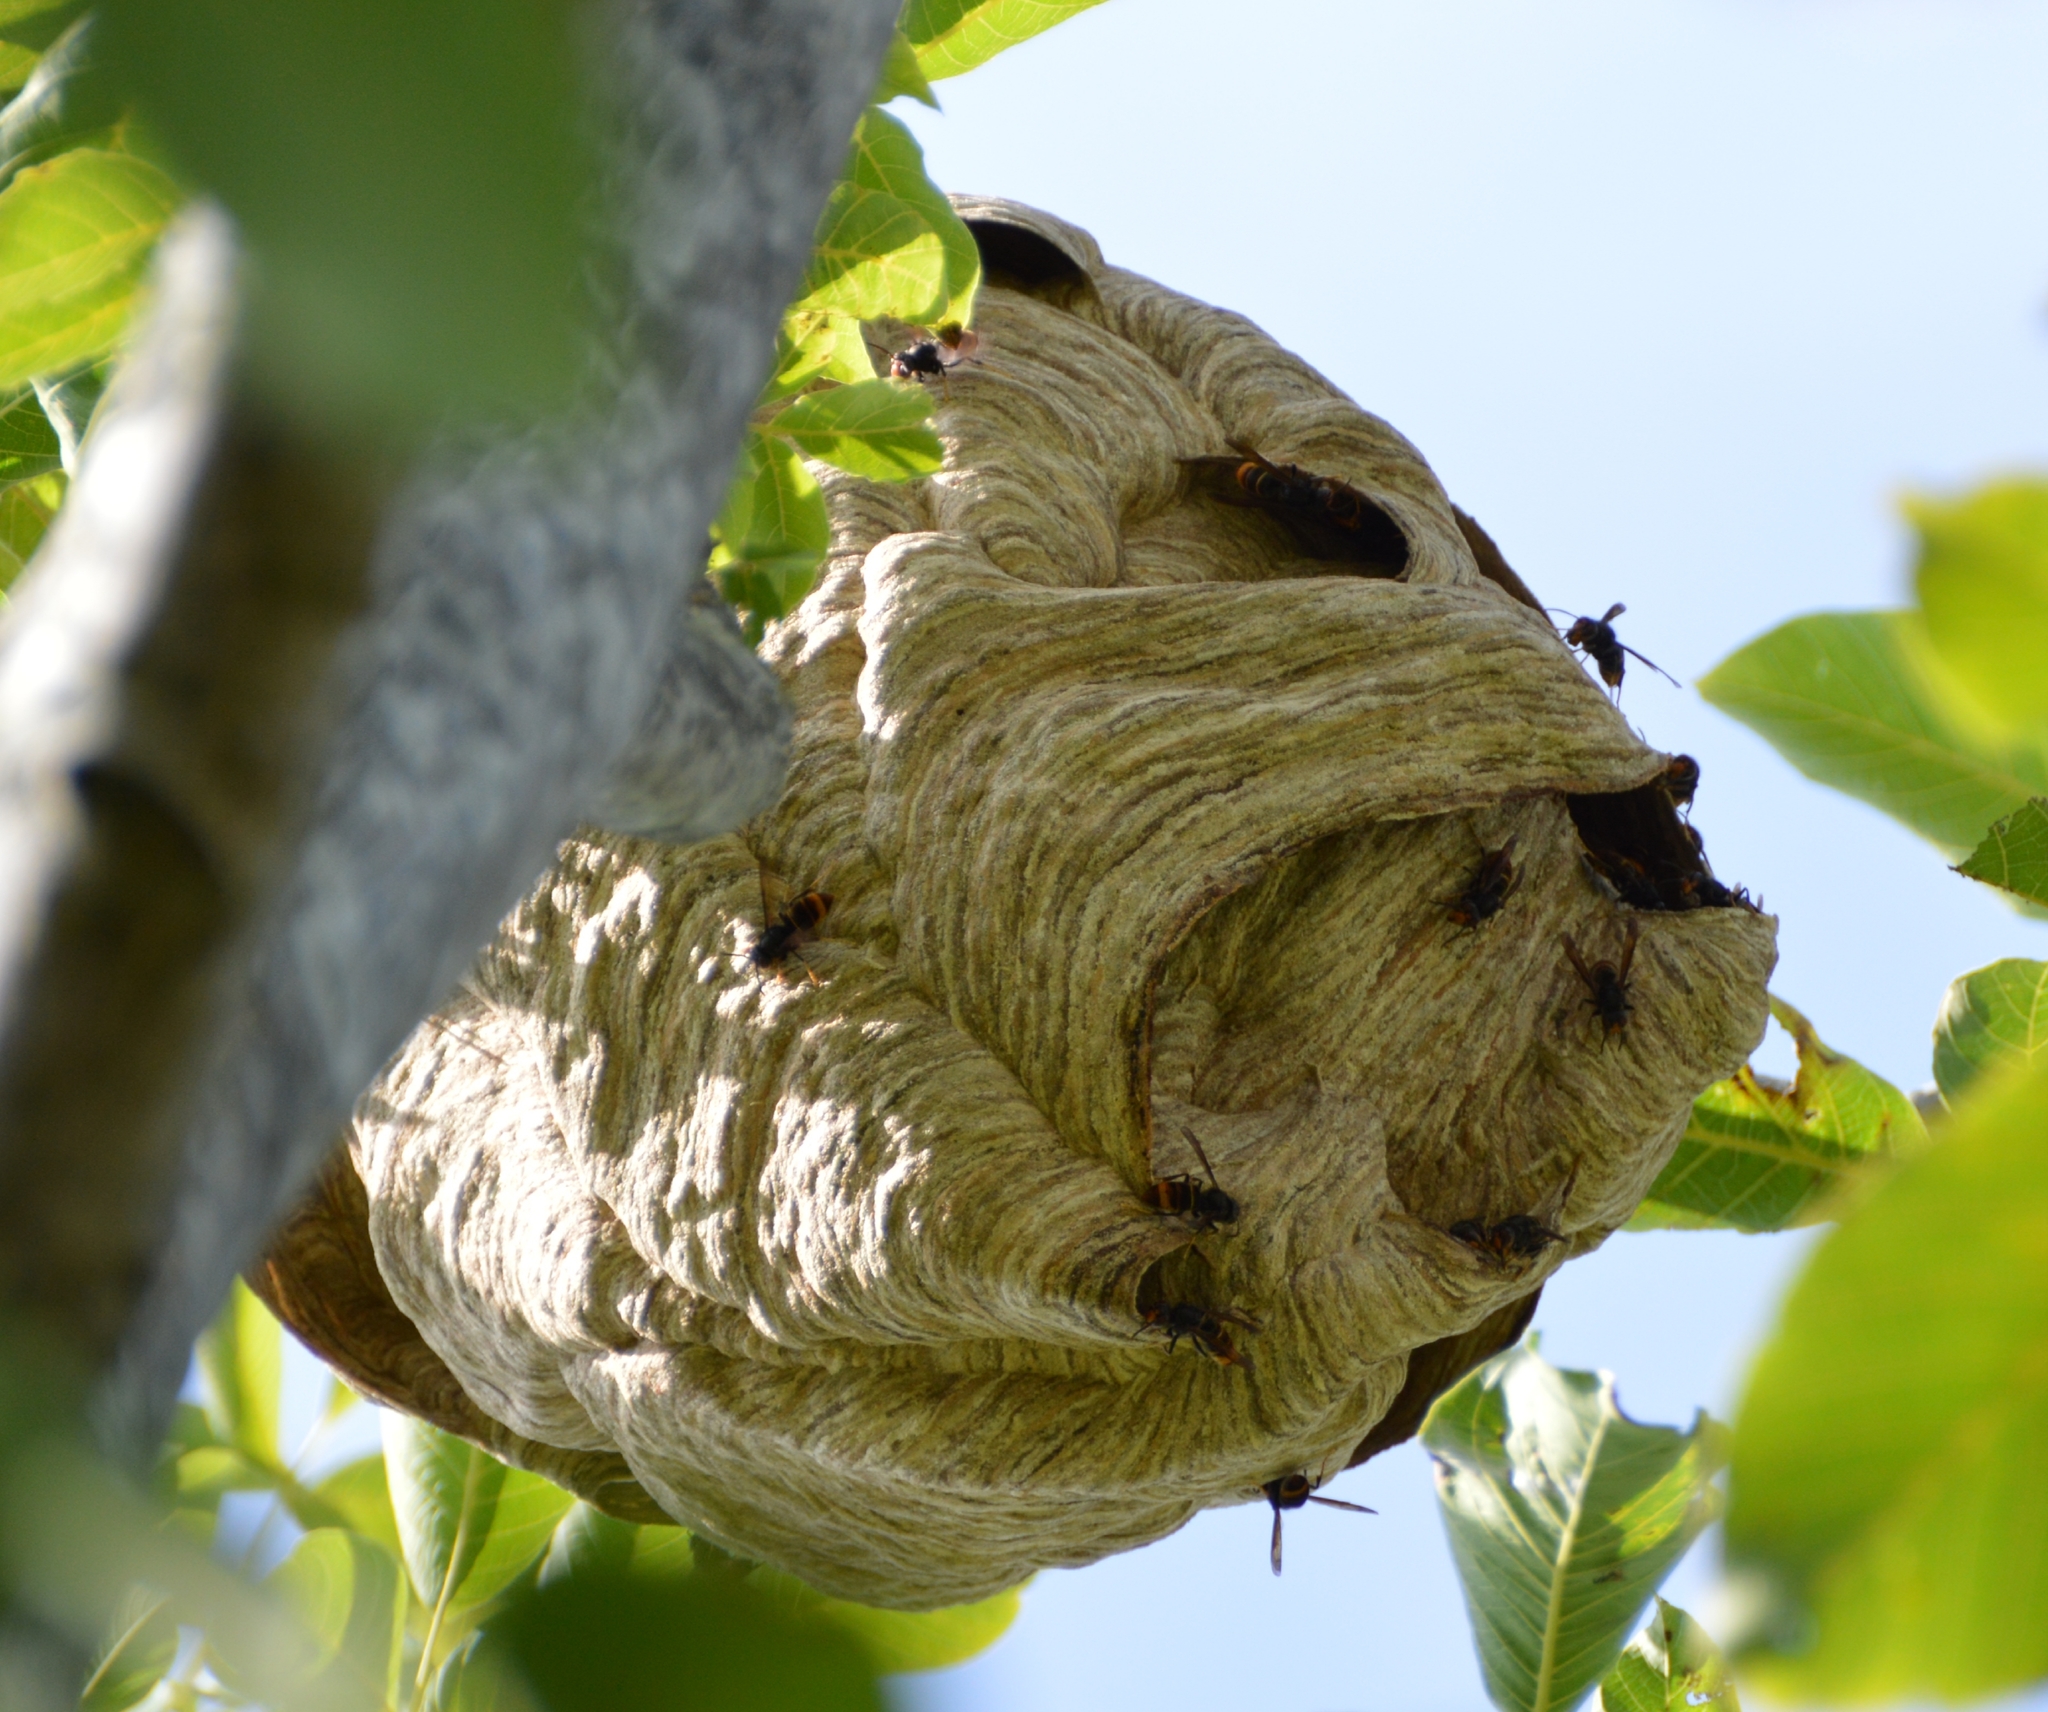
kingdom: Animalia
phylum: Arthropoda
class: Insecta
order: Hymenoptera
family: Vespidae
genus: Vespa
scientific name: Vespa velutina
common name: Asian hornet
